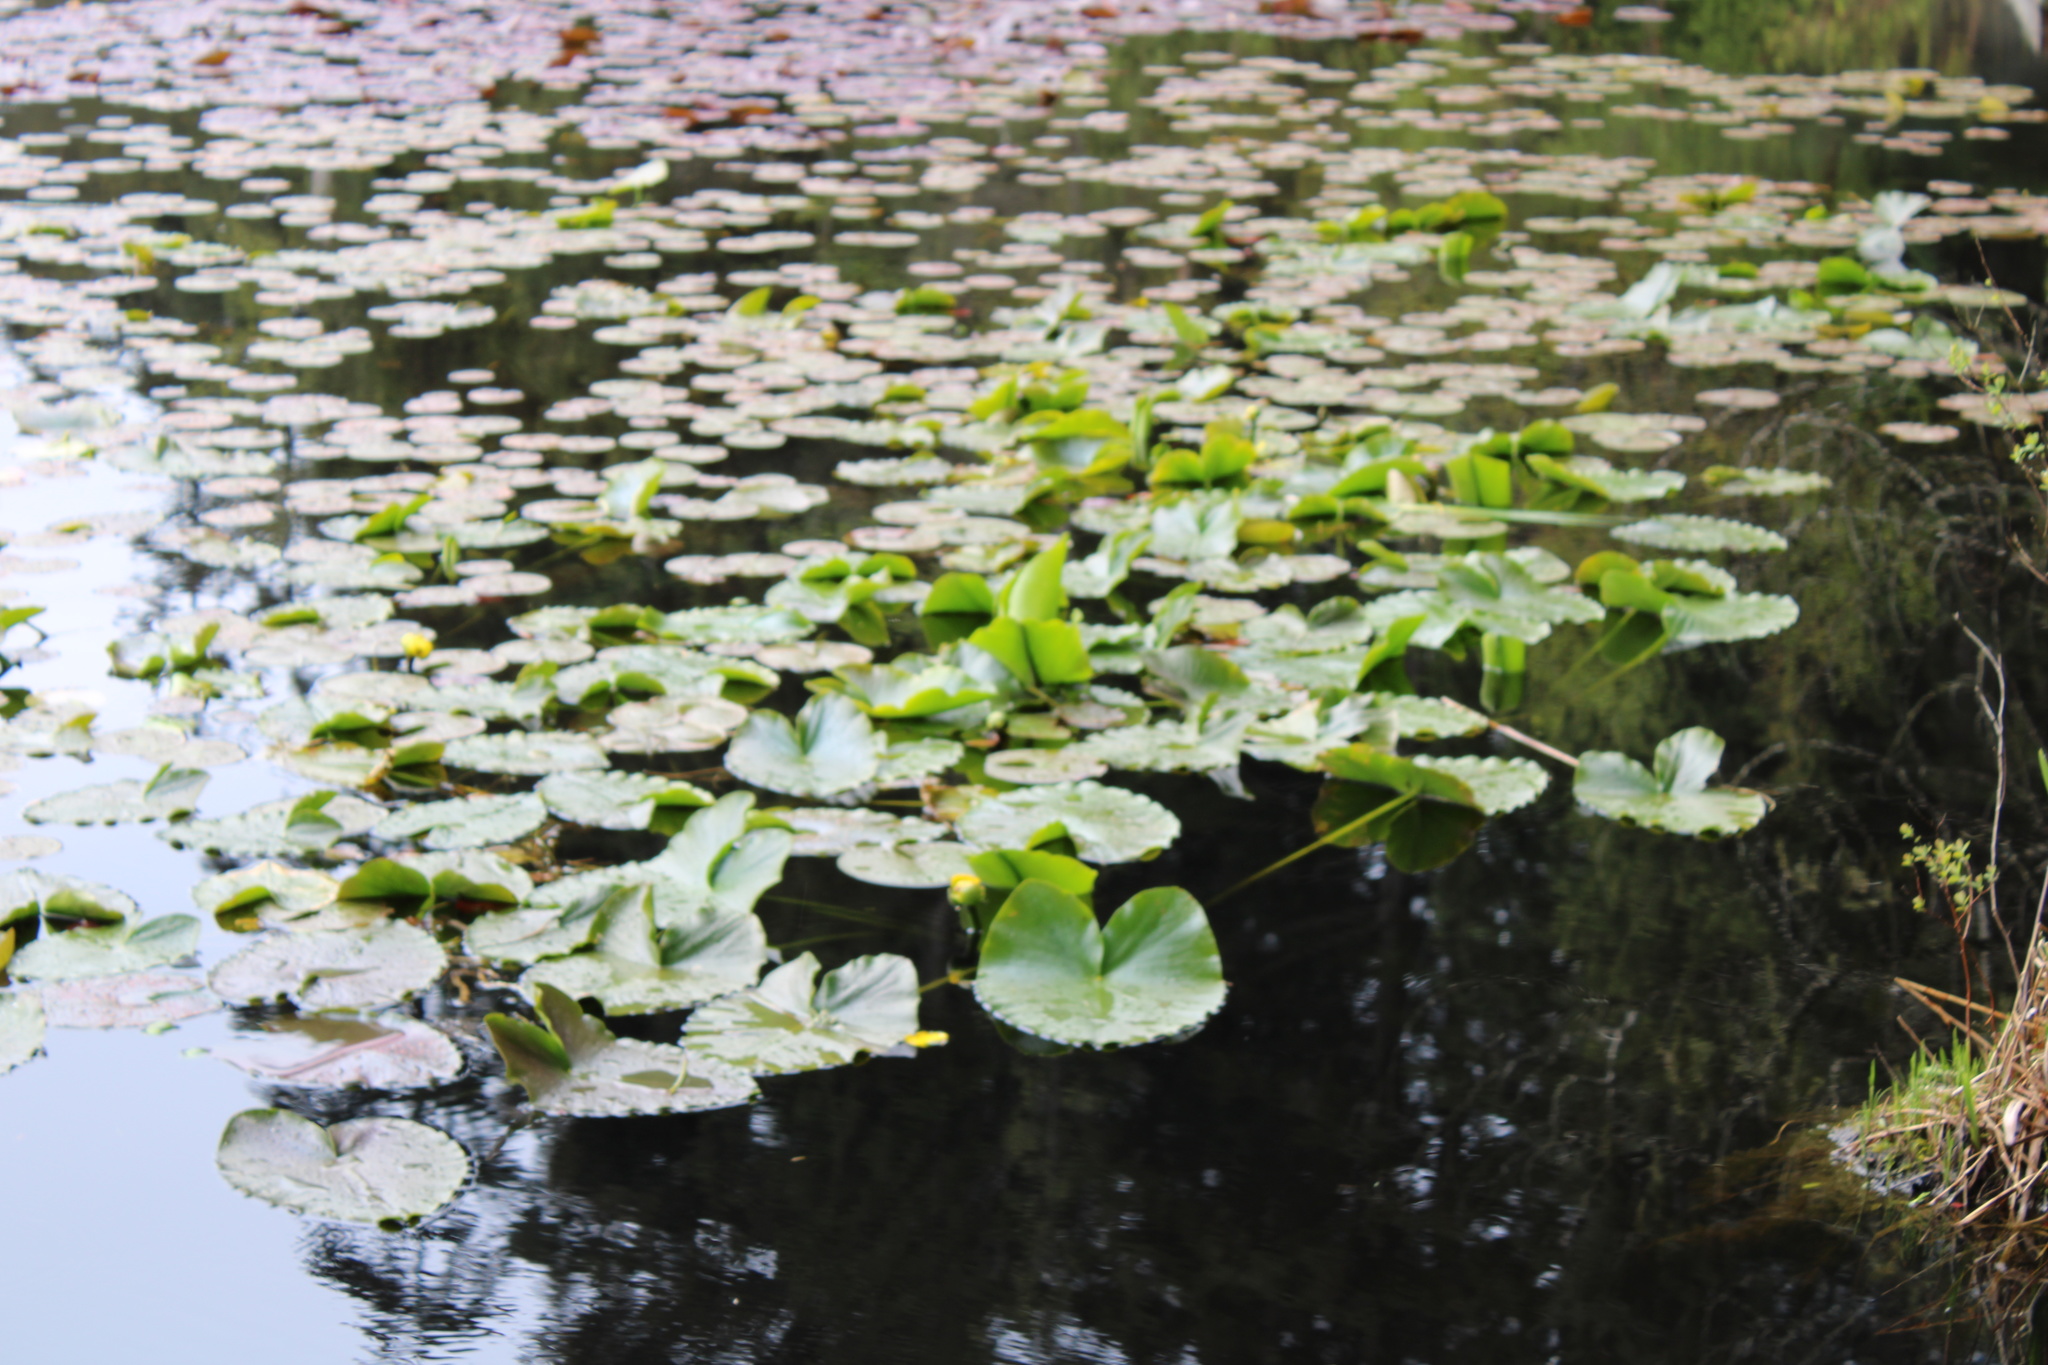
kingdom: Plantae
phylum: Tracheophyta
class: Magnoliopsida
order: Nymphaeales
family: Nymphaeaceae
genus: Nuphar
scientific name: Nuphar polysepala
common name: Rocky mountain cow-lily
